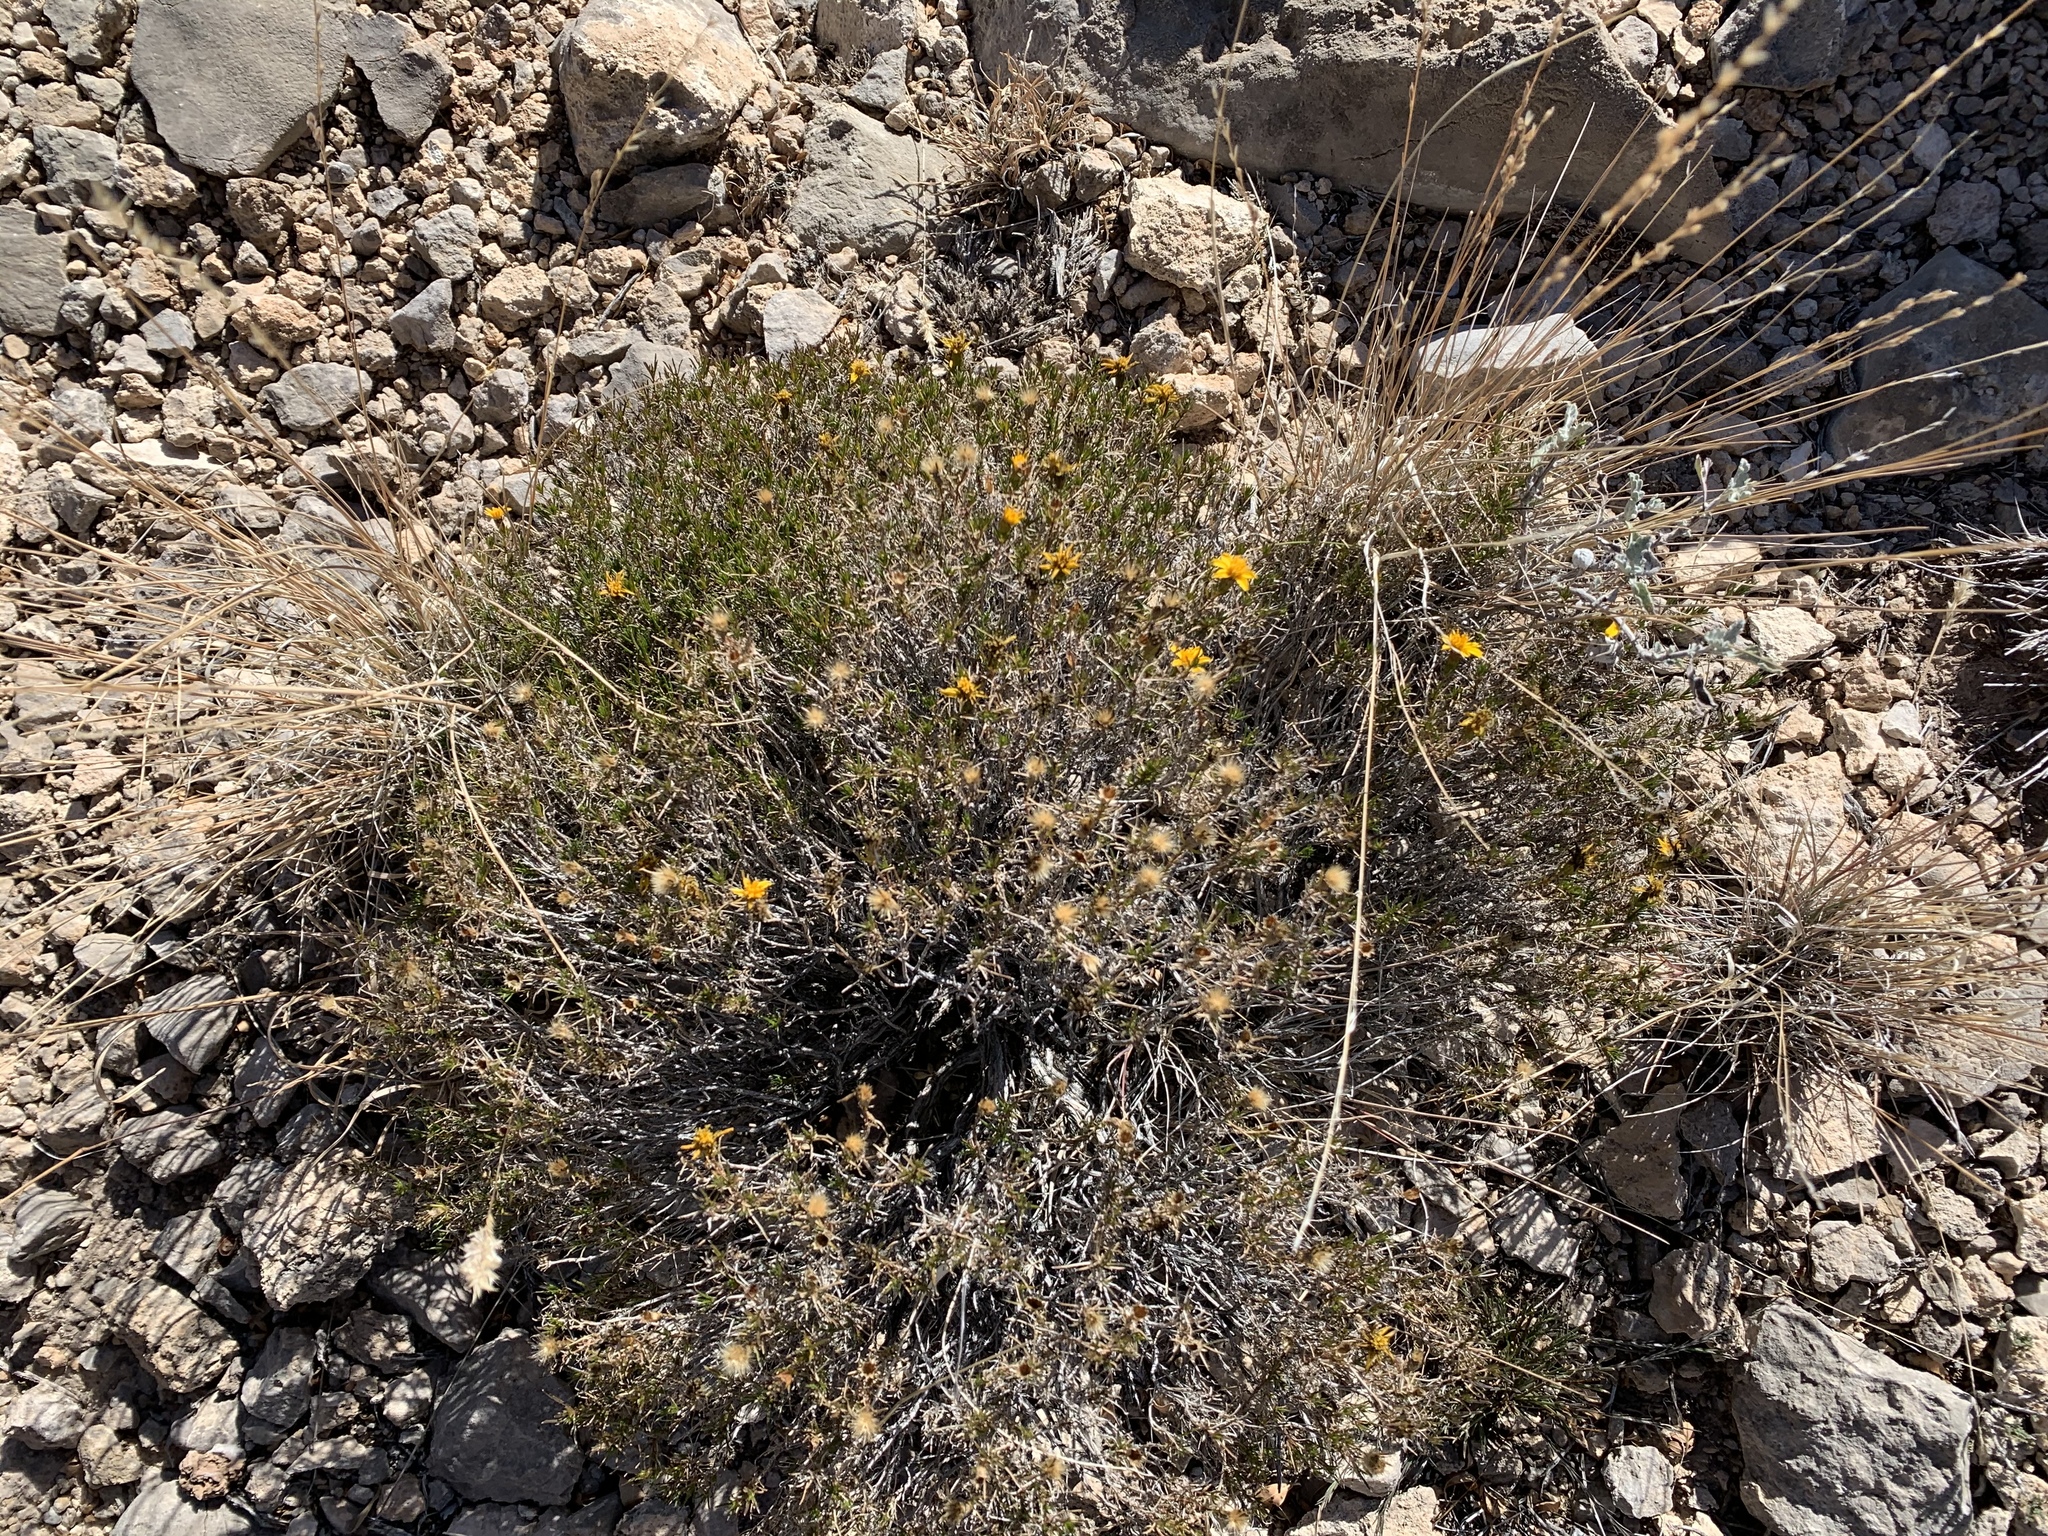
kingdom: Plantae
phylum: Tracheophyta
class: Magnoliopsida
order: Asterales
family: Asteraceae
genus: Thymophylla
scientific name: Thymophylla acerosa
